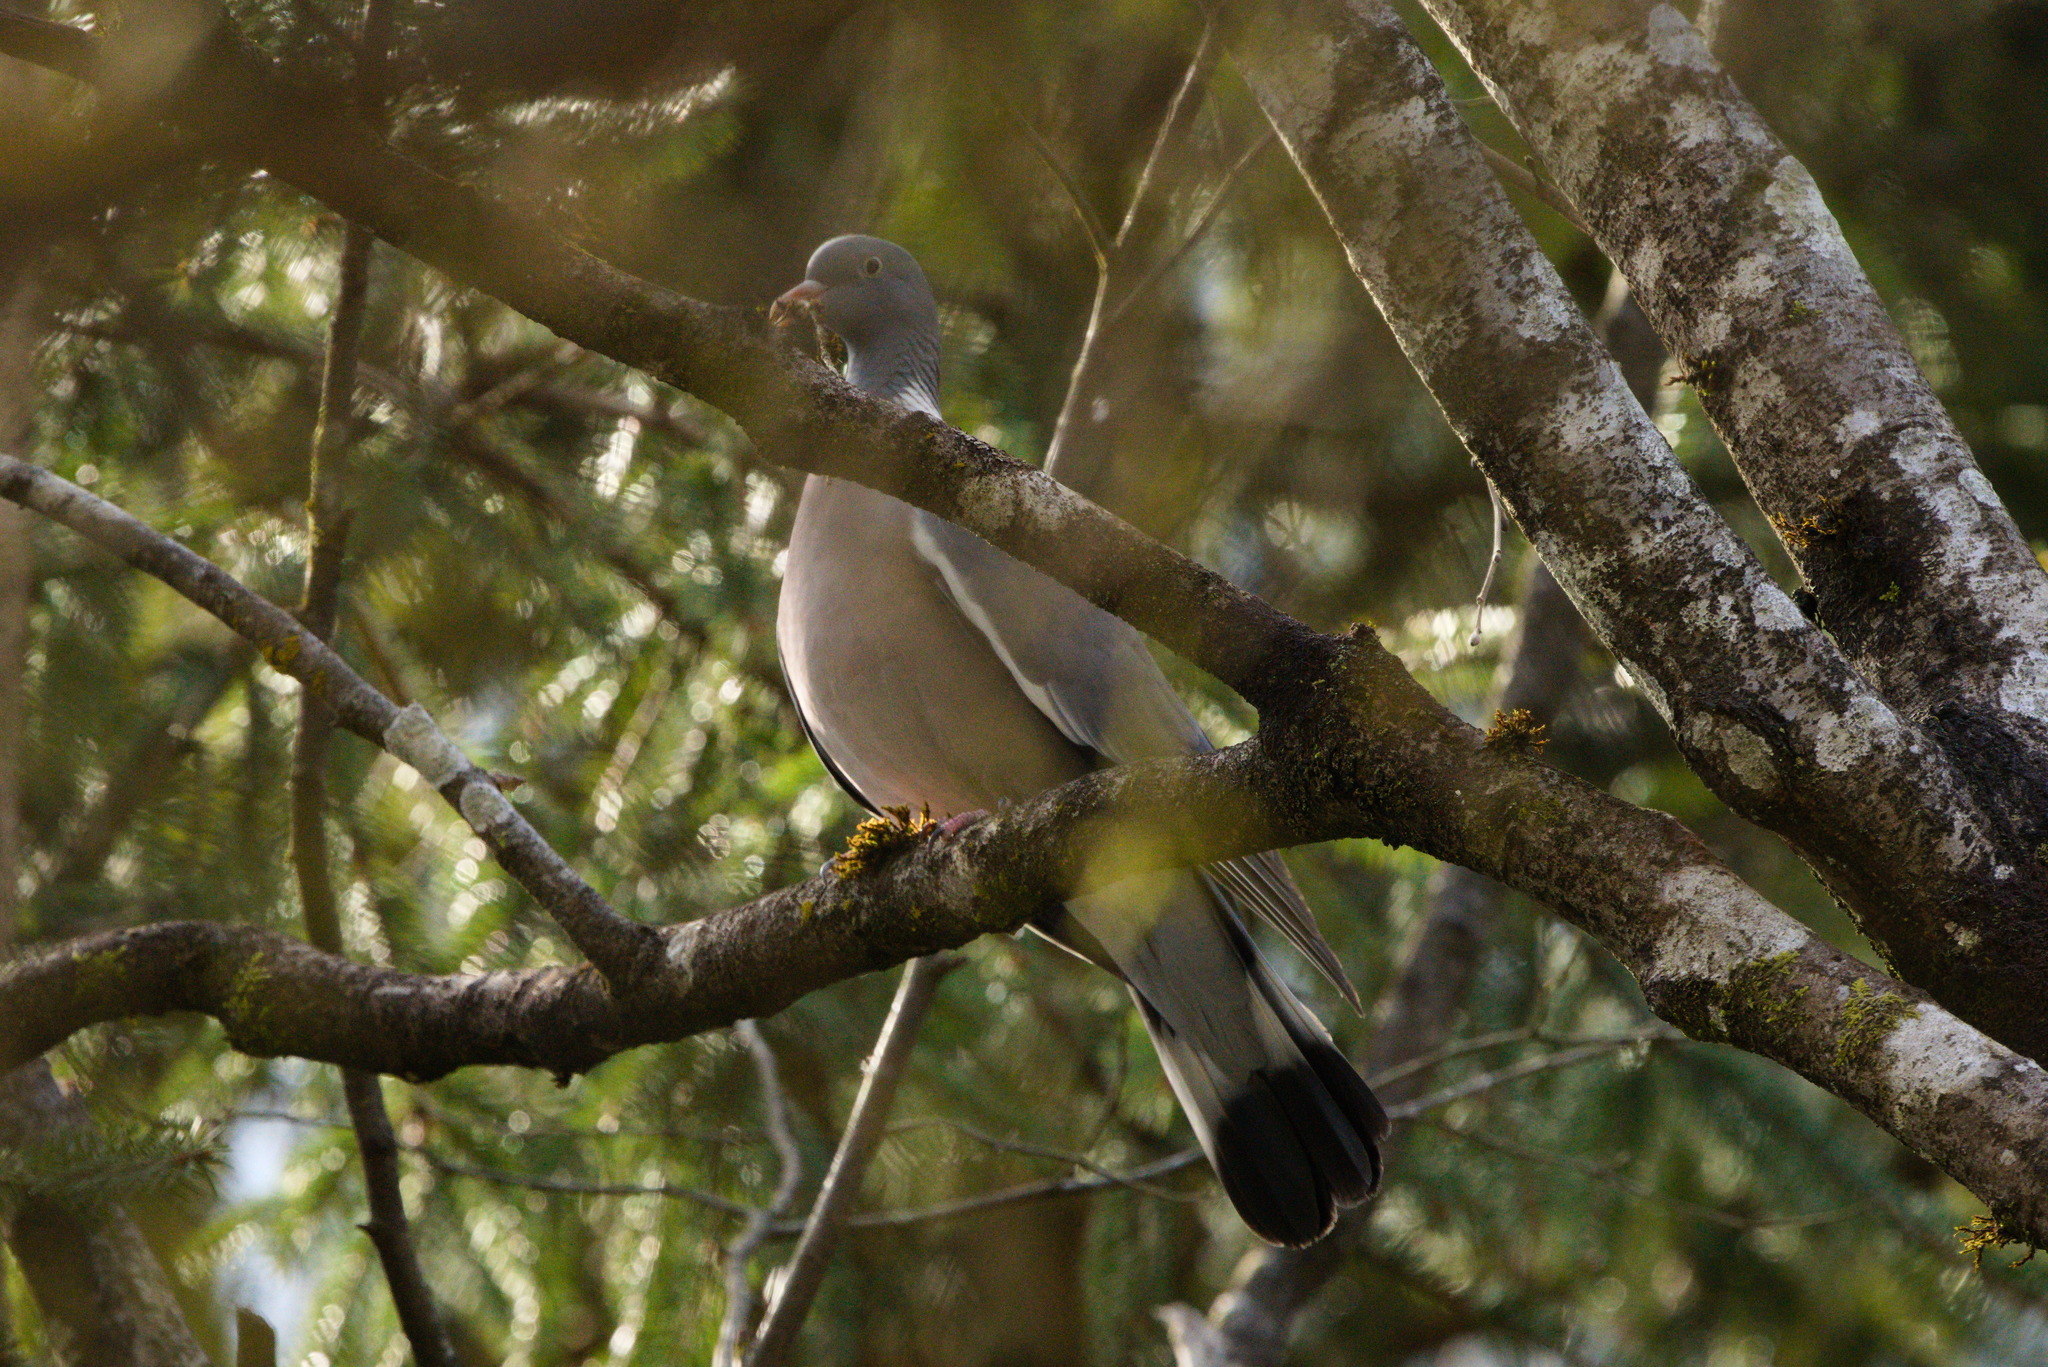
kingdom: Animalia
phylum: Chordata
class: Aves
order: Columbiformes
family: Columbidae
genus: Columba
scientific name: Columba palumbus
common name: Common wood pigeon
